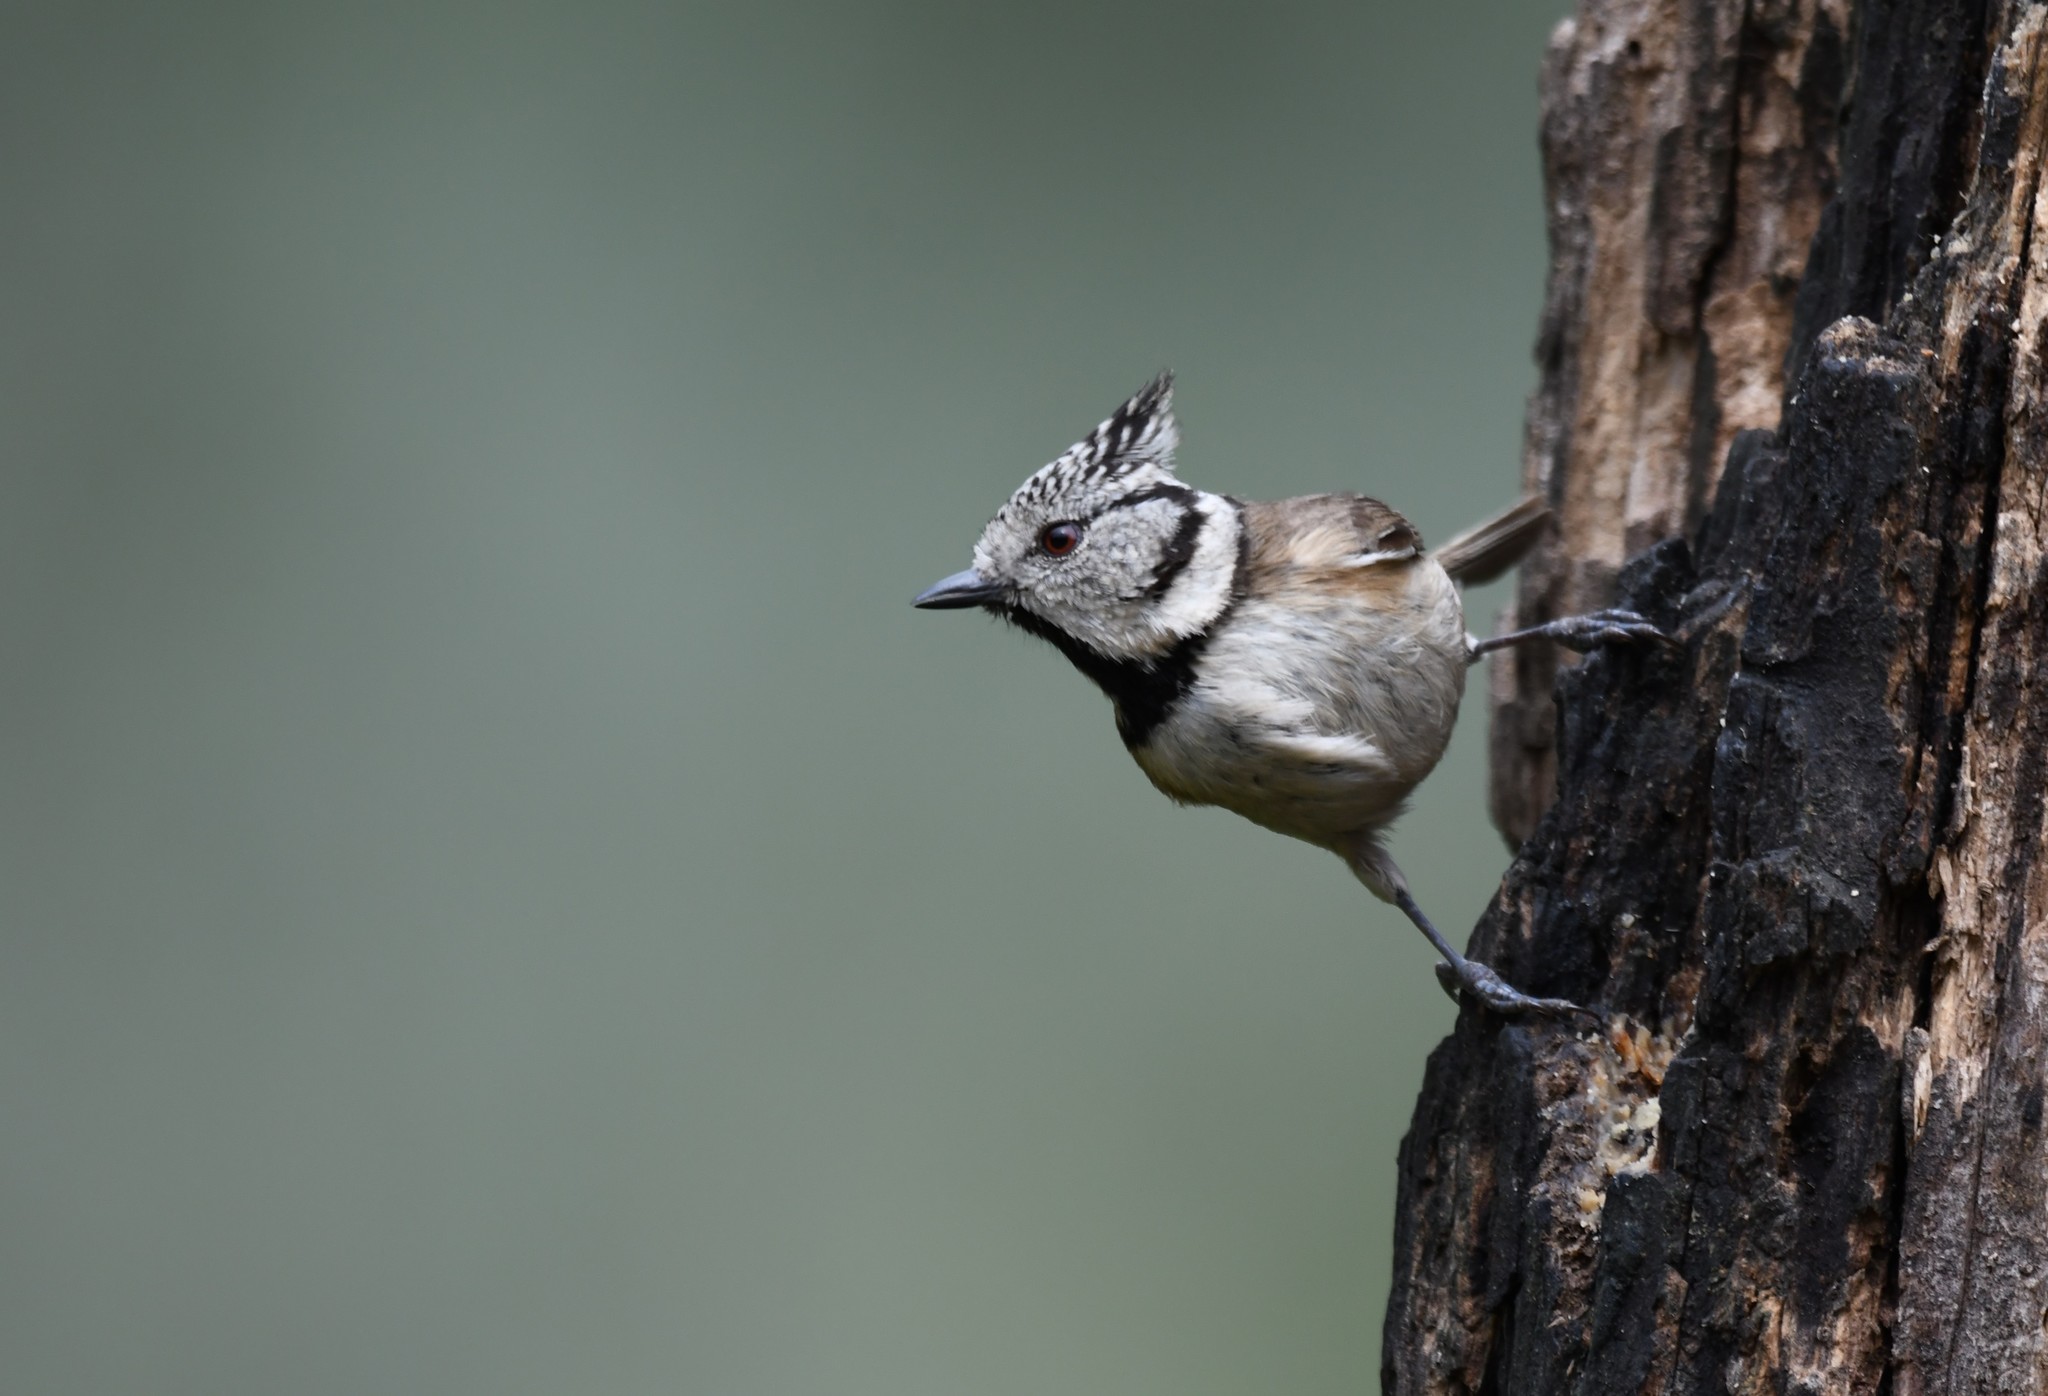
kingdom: Animalia
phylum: Chordata
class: Aves
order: Passeriformes
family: Paridae
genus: Lophophanes
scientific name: Lophophanes cristatus
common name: European crested tit
